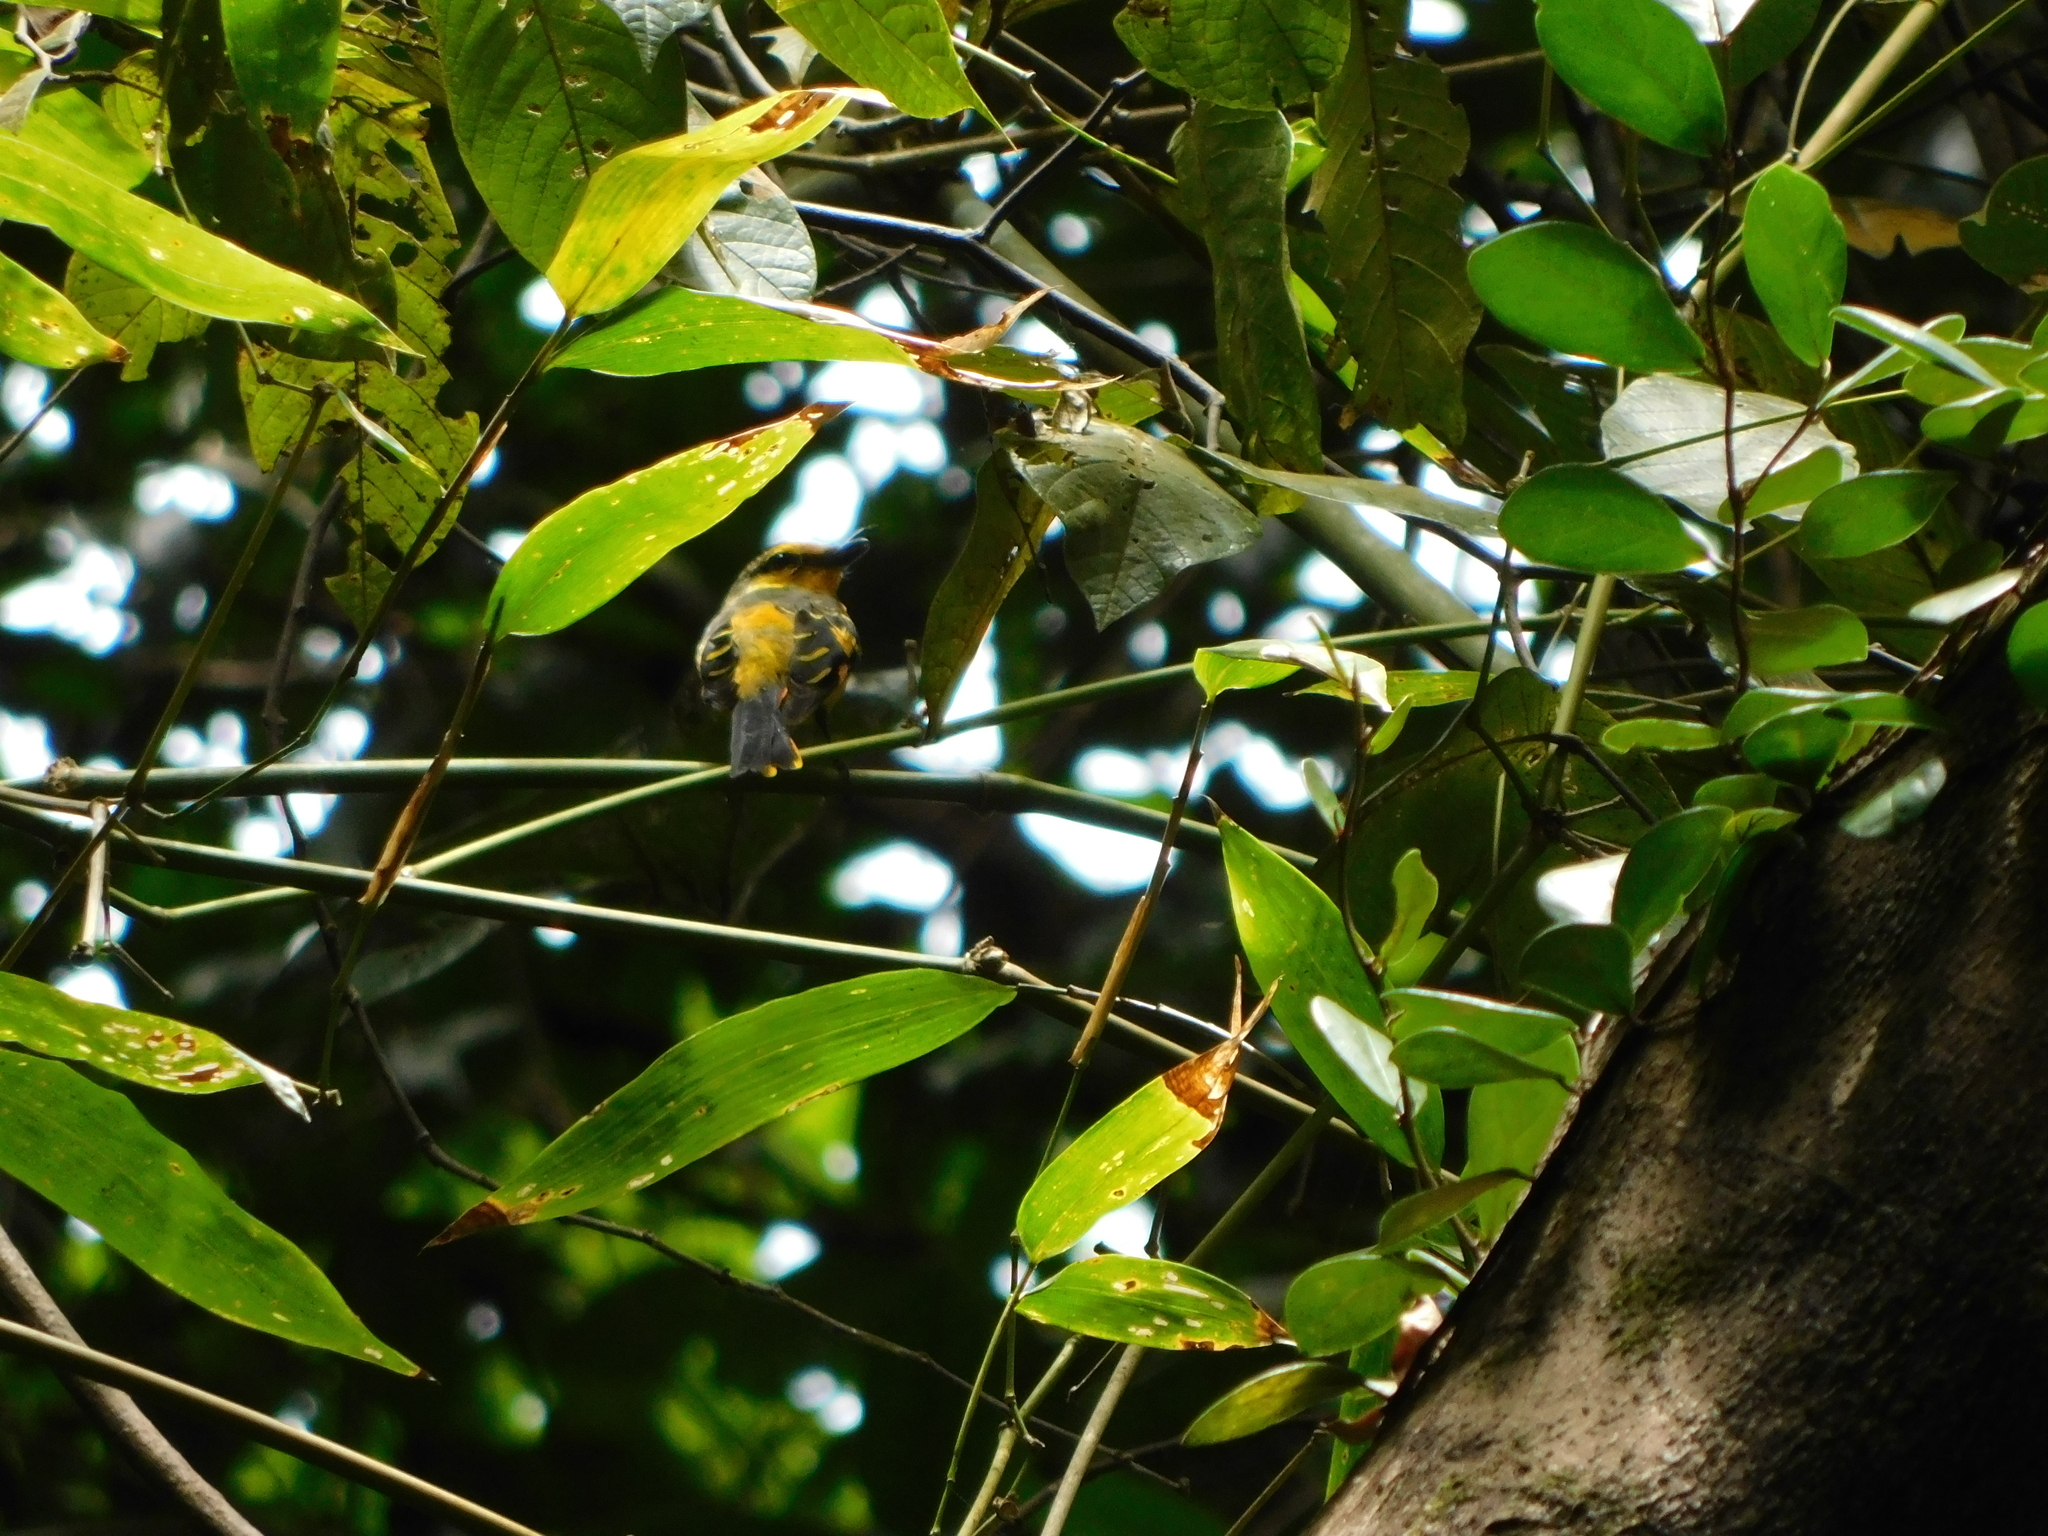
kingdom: Animalia
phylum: Chordata
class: Aves
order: Passeriformes
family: Campephagidae
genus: Pericrocotus
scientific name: Pericrocotus speciosus
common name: Scarlet minivet
